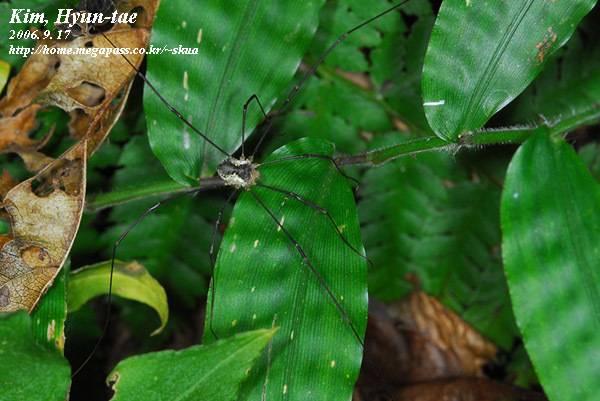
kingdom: Animalia
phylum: Arthropoda
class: Arachnida
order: Opiliones
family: Phalangiidae
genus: Oligolophus
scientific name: Oligolophus tienmushanensis
